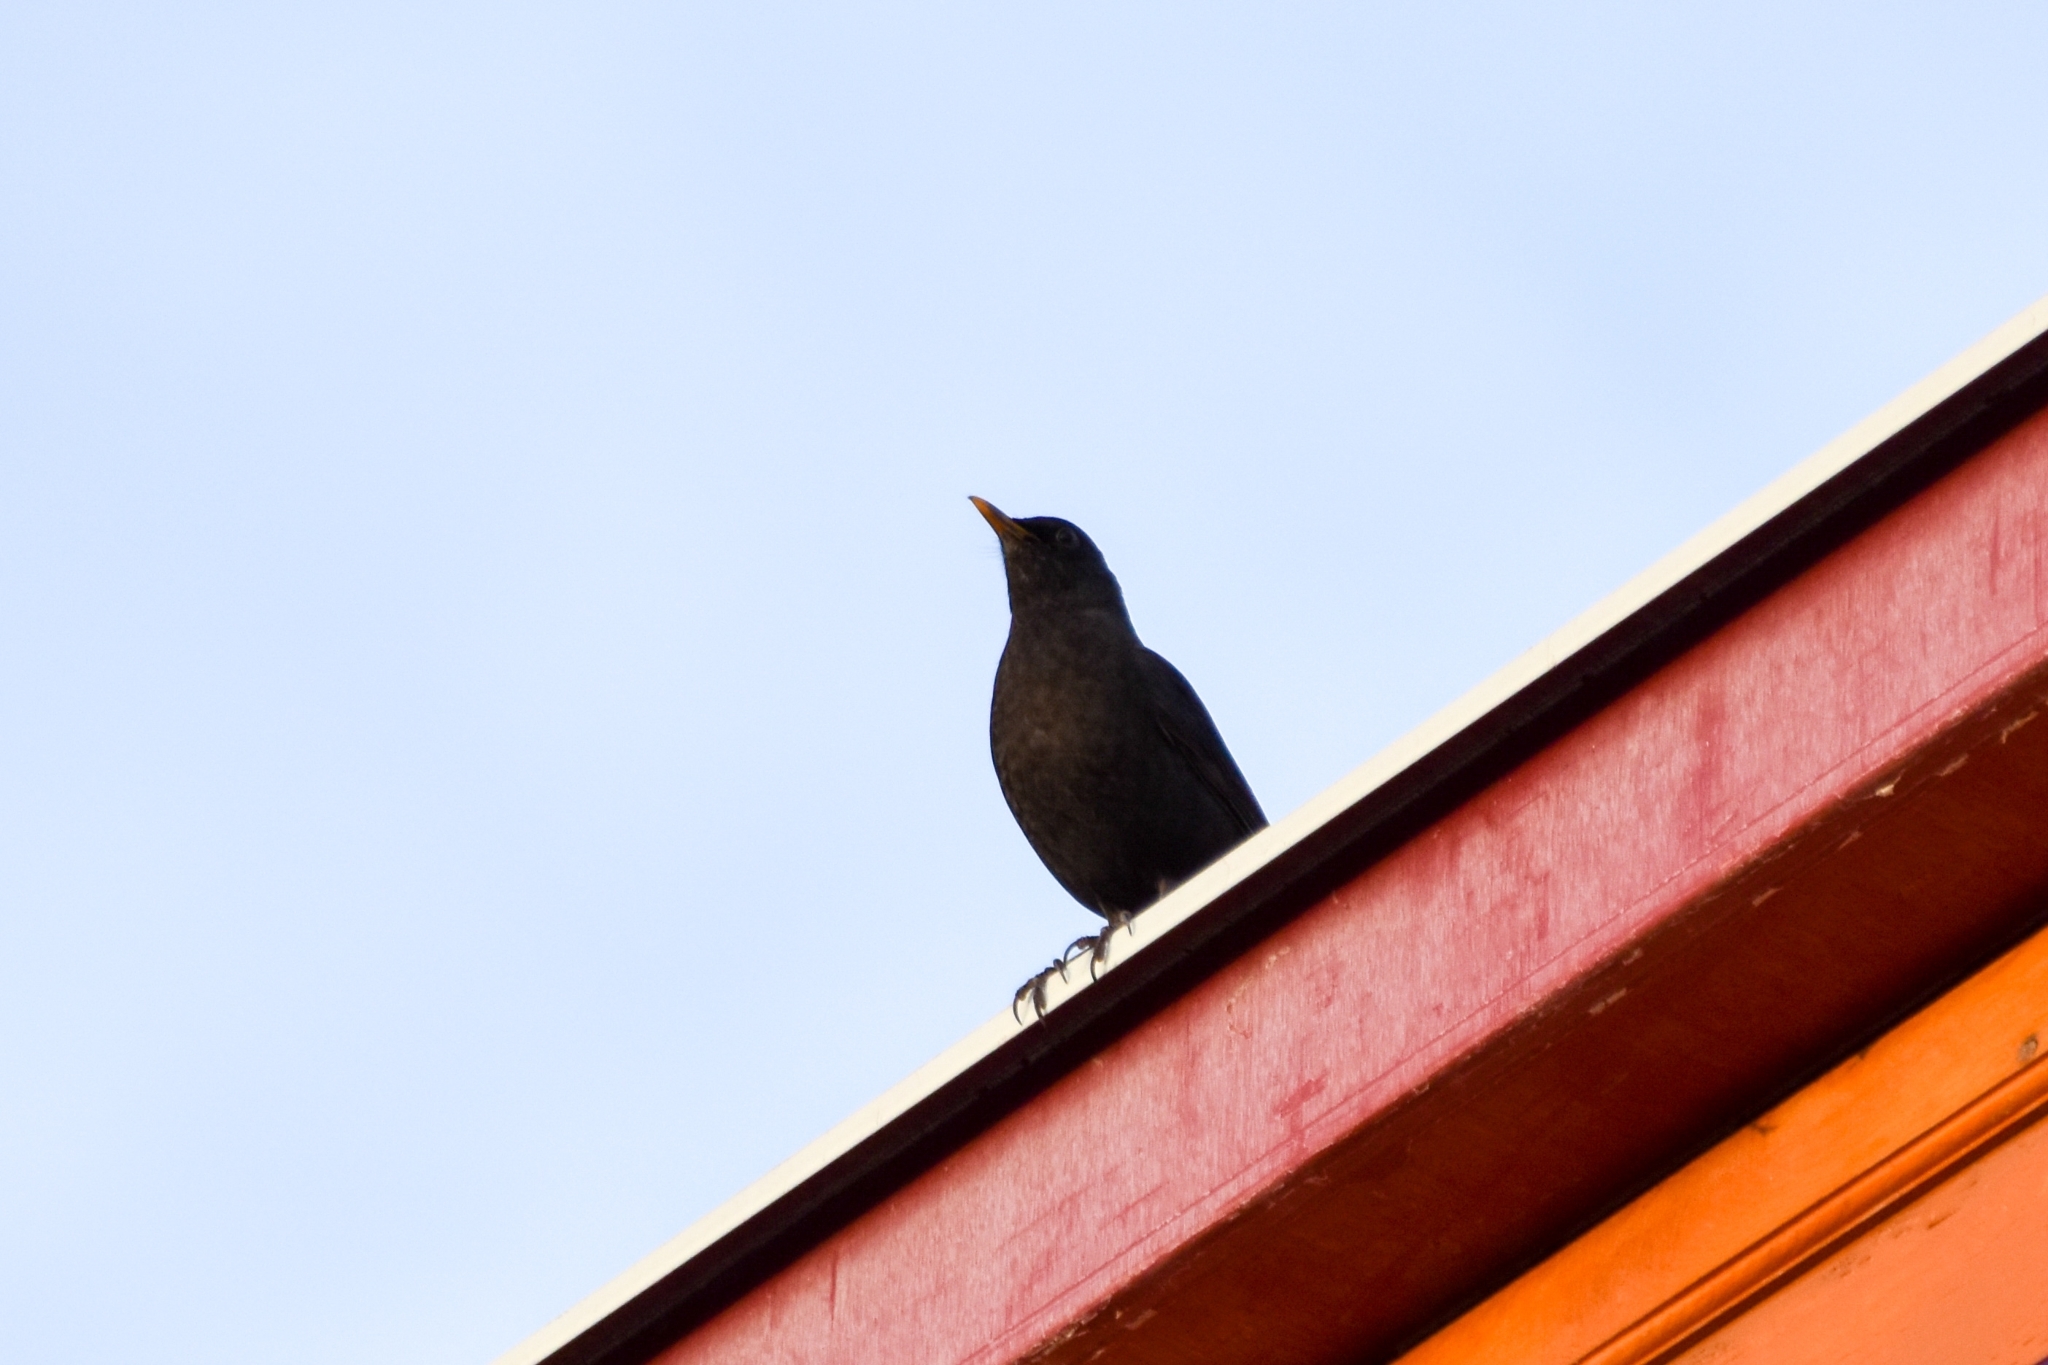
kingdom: Animalia
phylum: Chordata
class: Aves
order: Passeriformes
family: Turdidae
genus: Turdus
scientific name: Turdus merula
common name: Common blackbird
